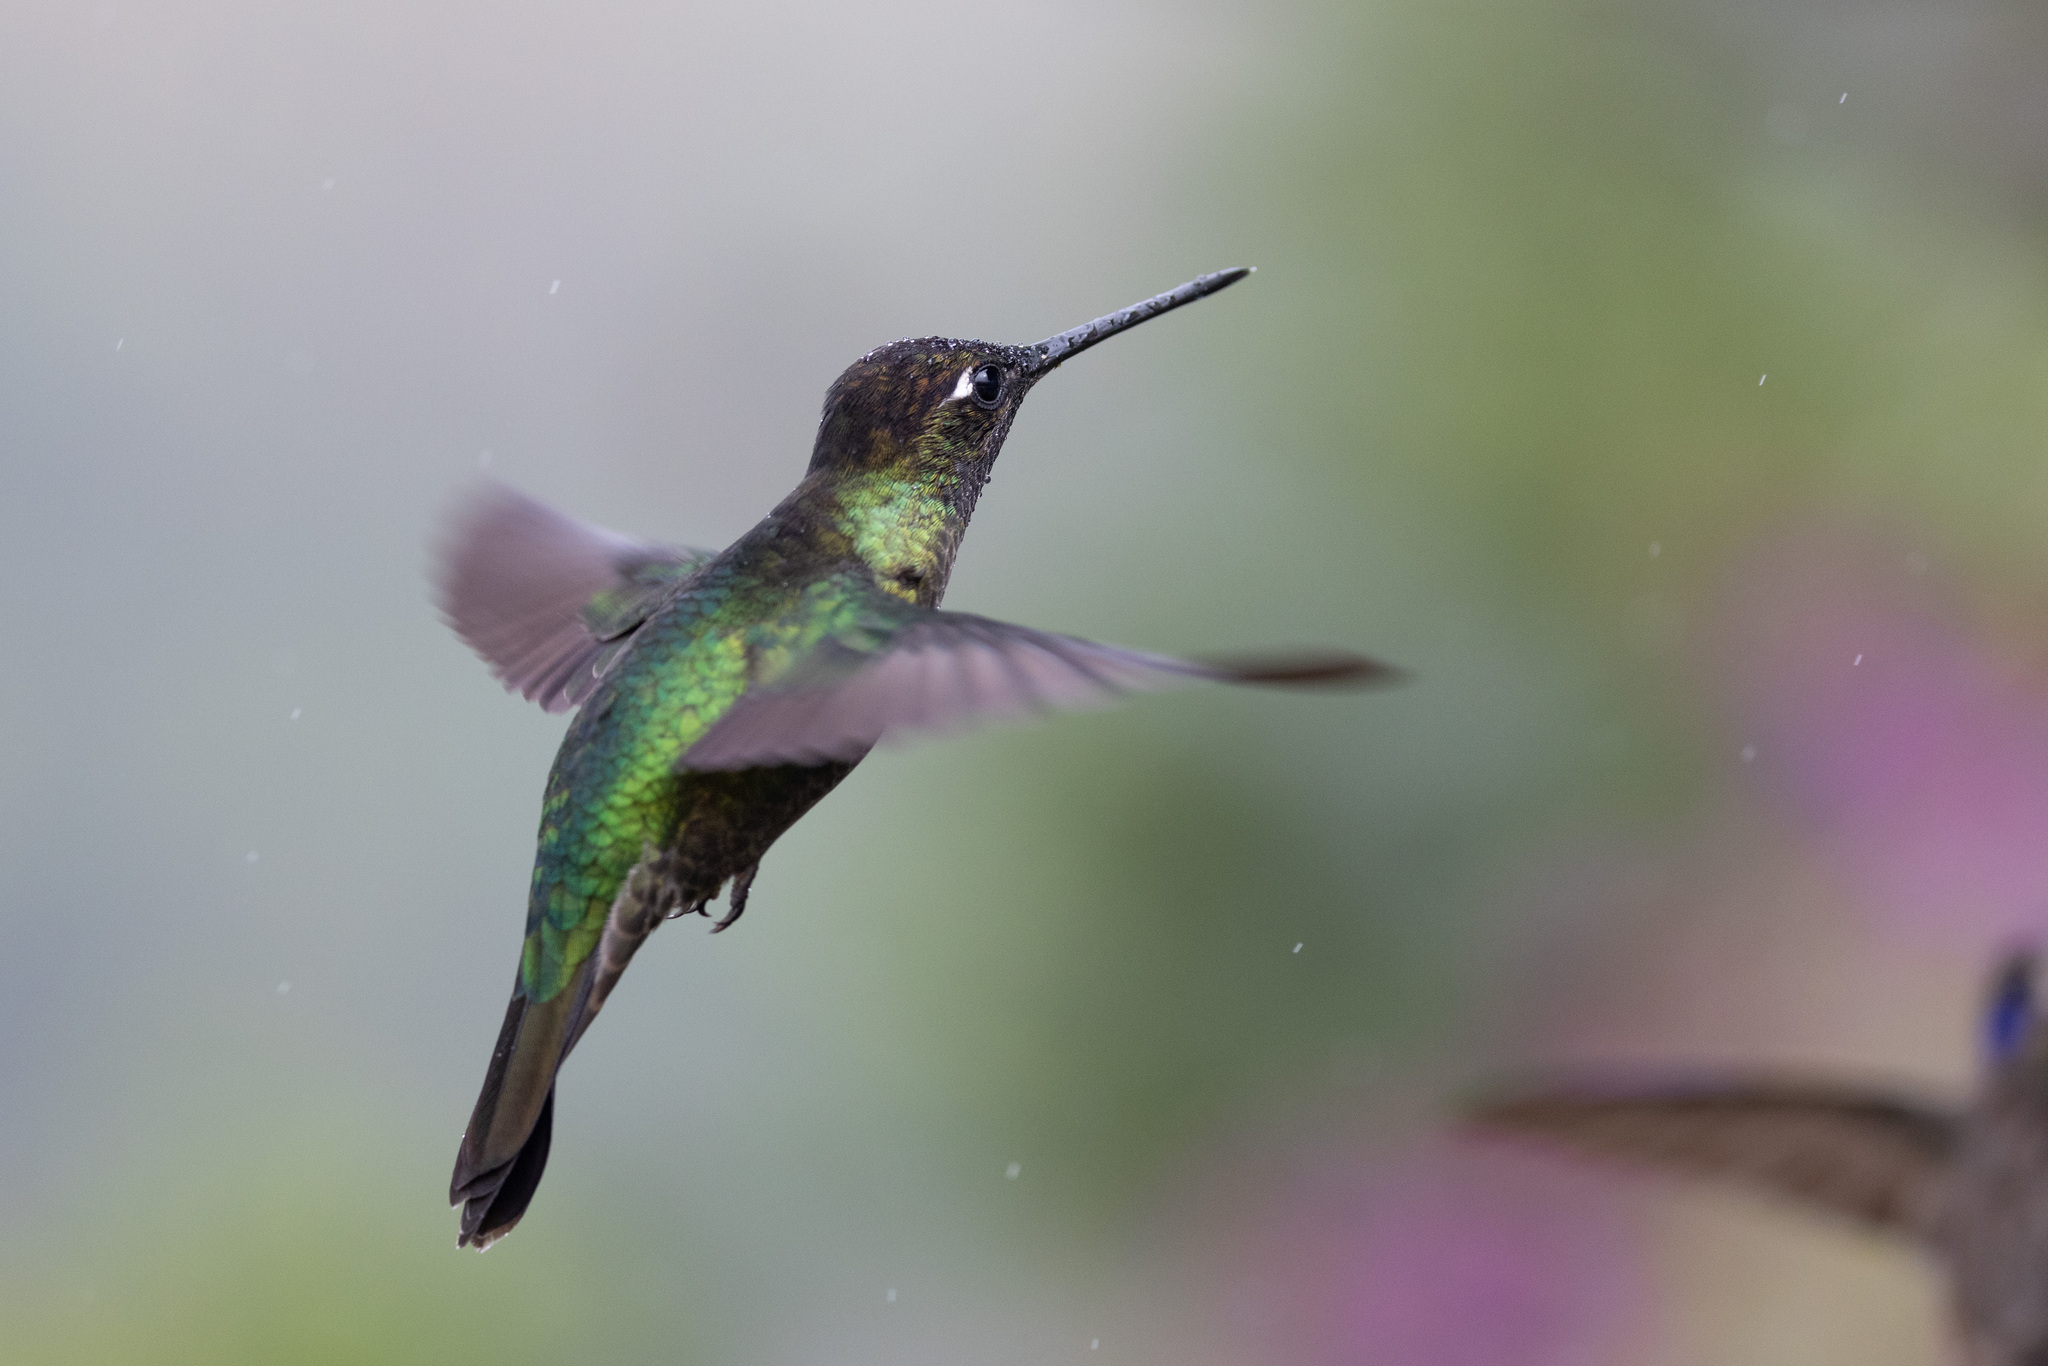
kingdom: Animalia
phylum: Chordata
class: Aves
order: Apodiformes
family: Trochilidae
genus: Eugenes
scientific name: Eugenes spectabilis
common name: Talamanca hummingbird
